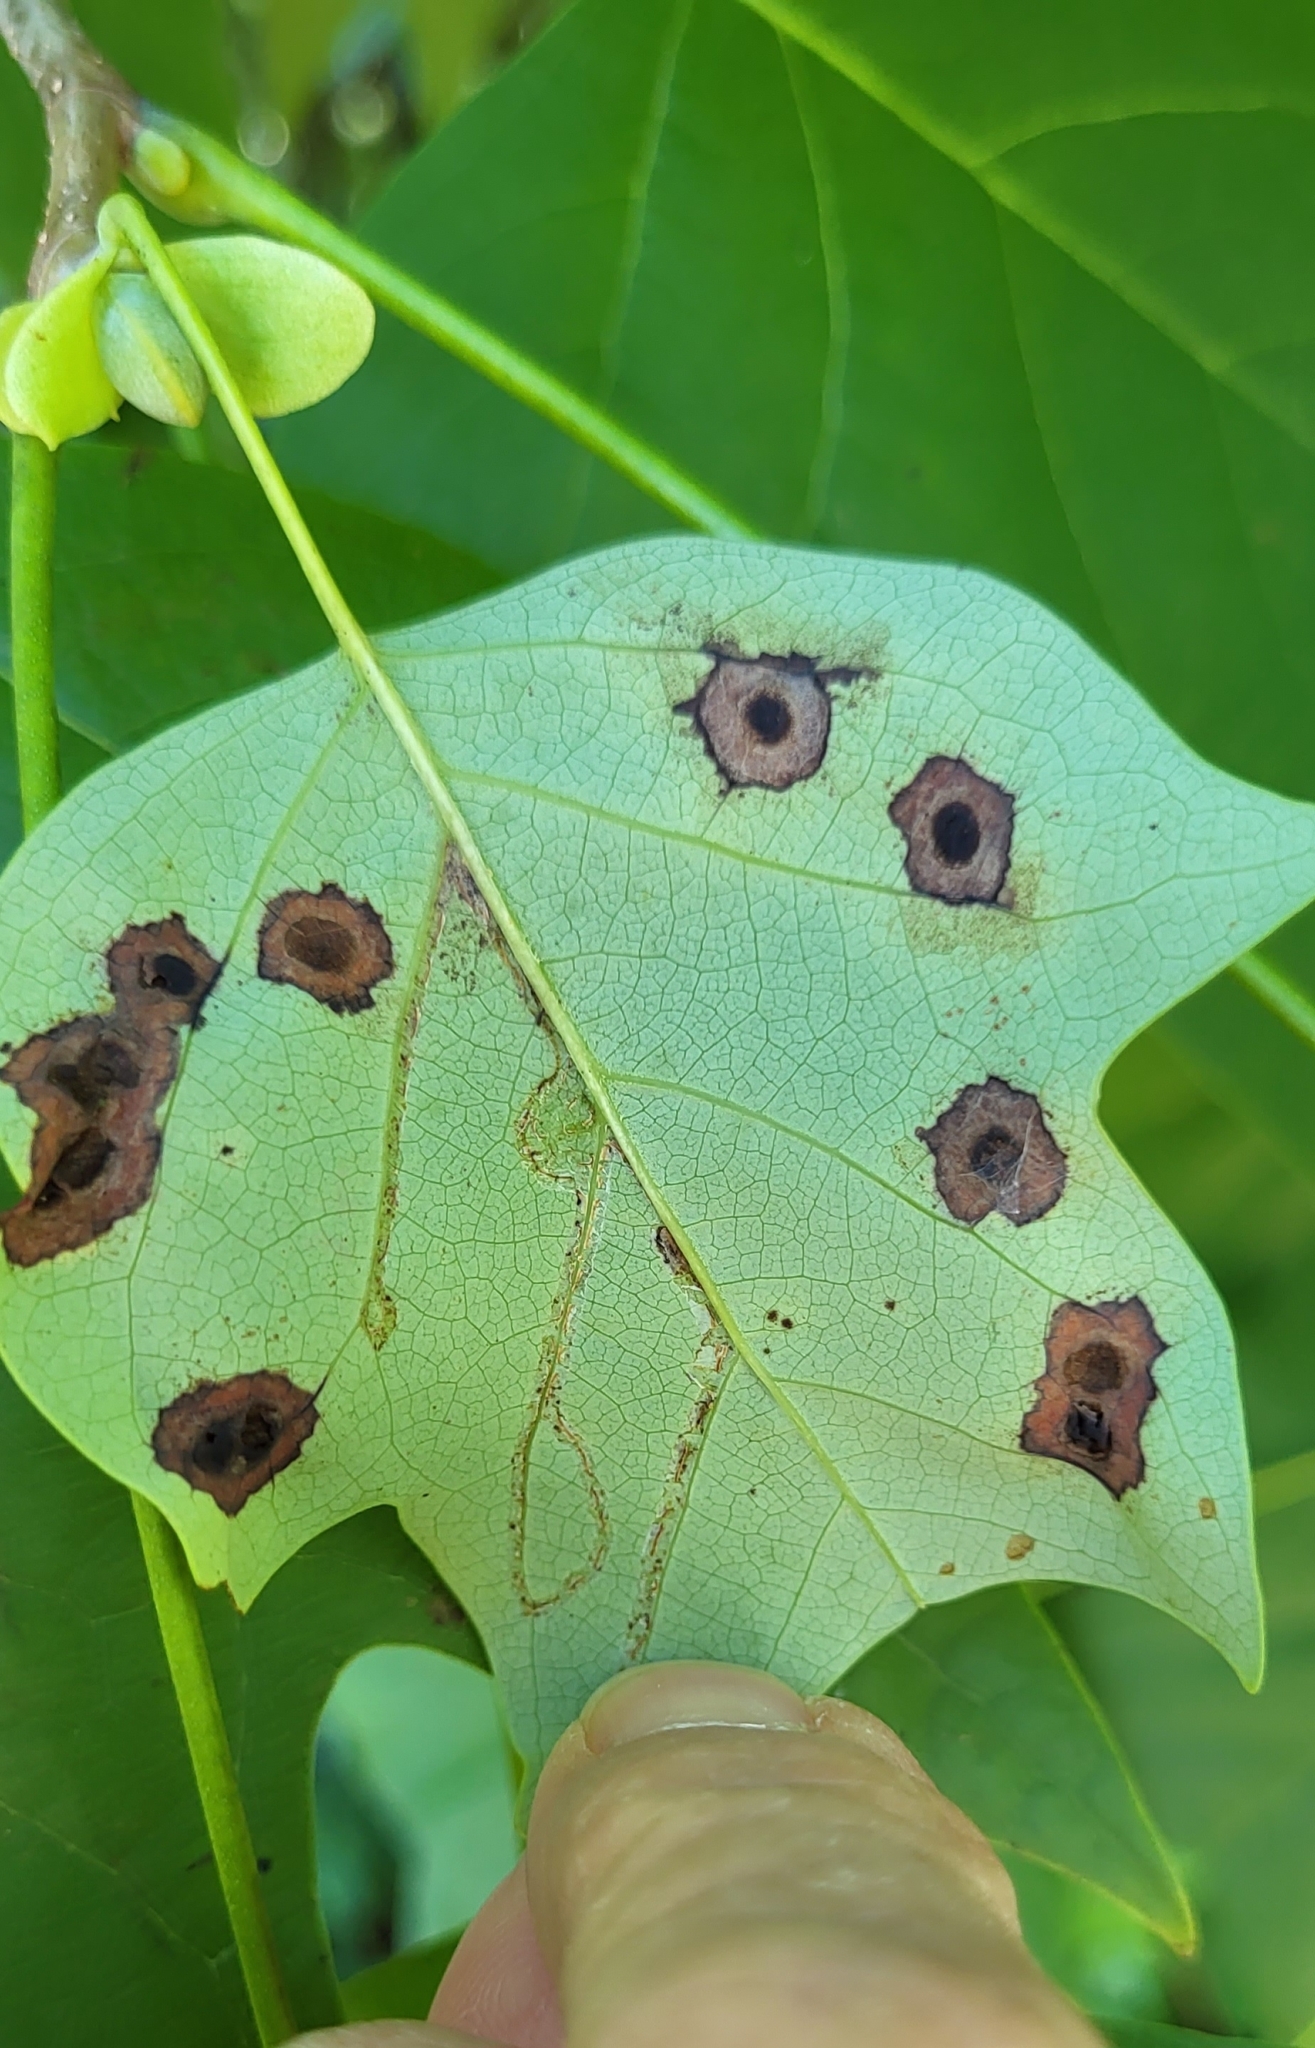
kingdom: Animalia
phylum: Arthropoda
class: Insecta
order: Diptera
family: Cecidomyiidae
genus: Resseliella
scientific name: Resseliella liriodendri
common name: Tulip tree leaf spot gall midge
